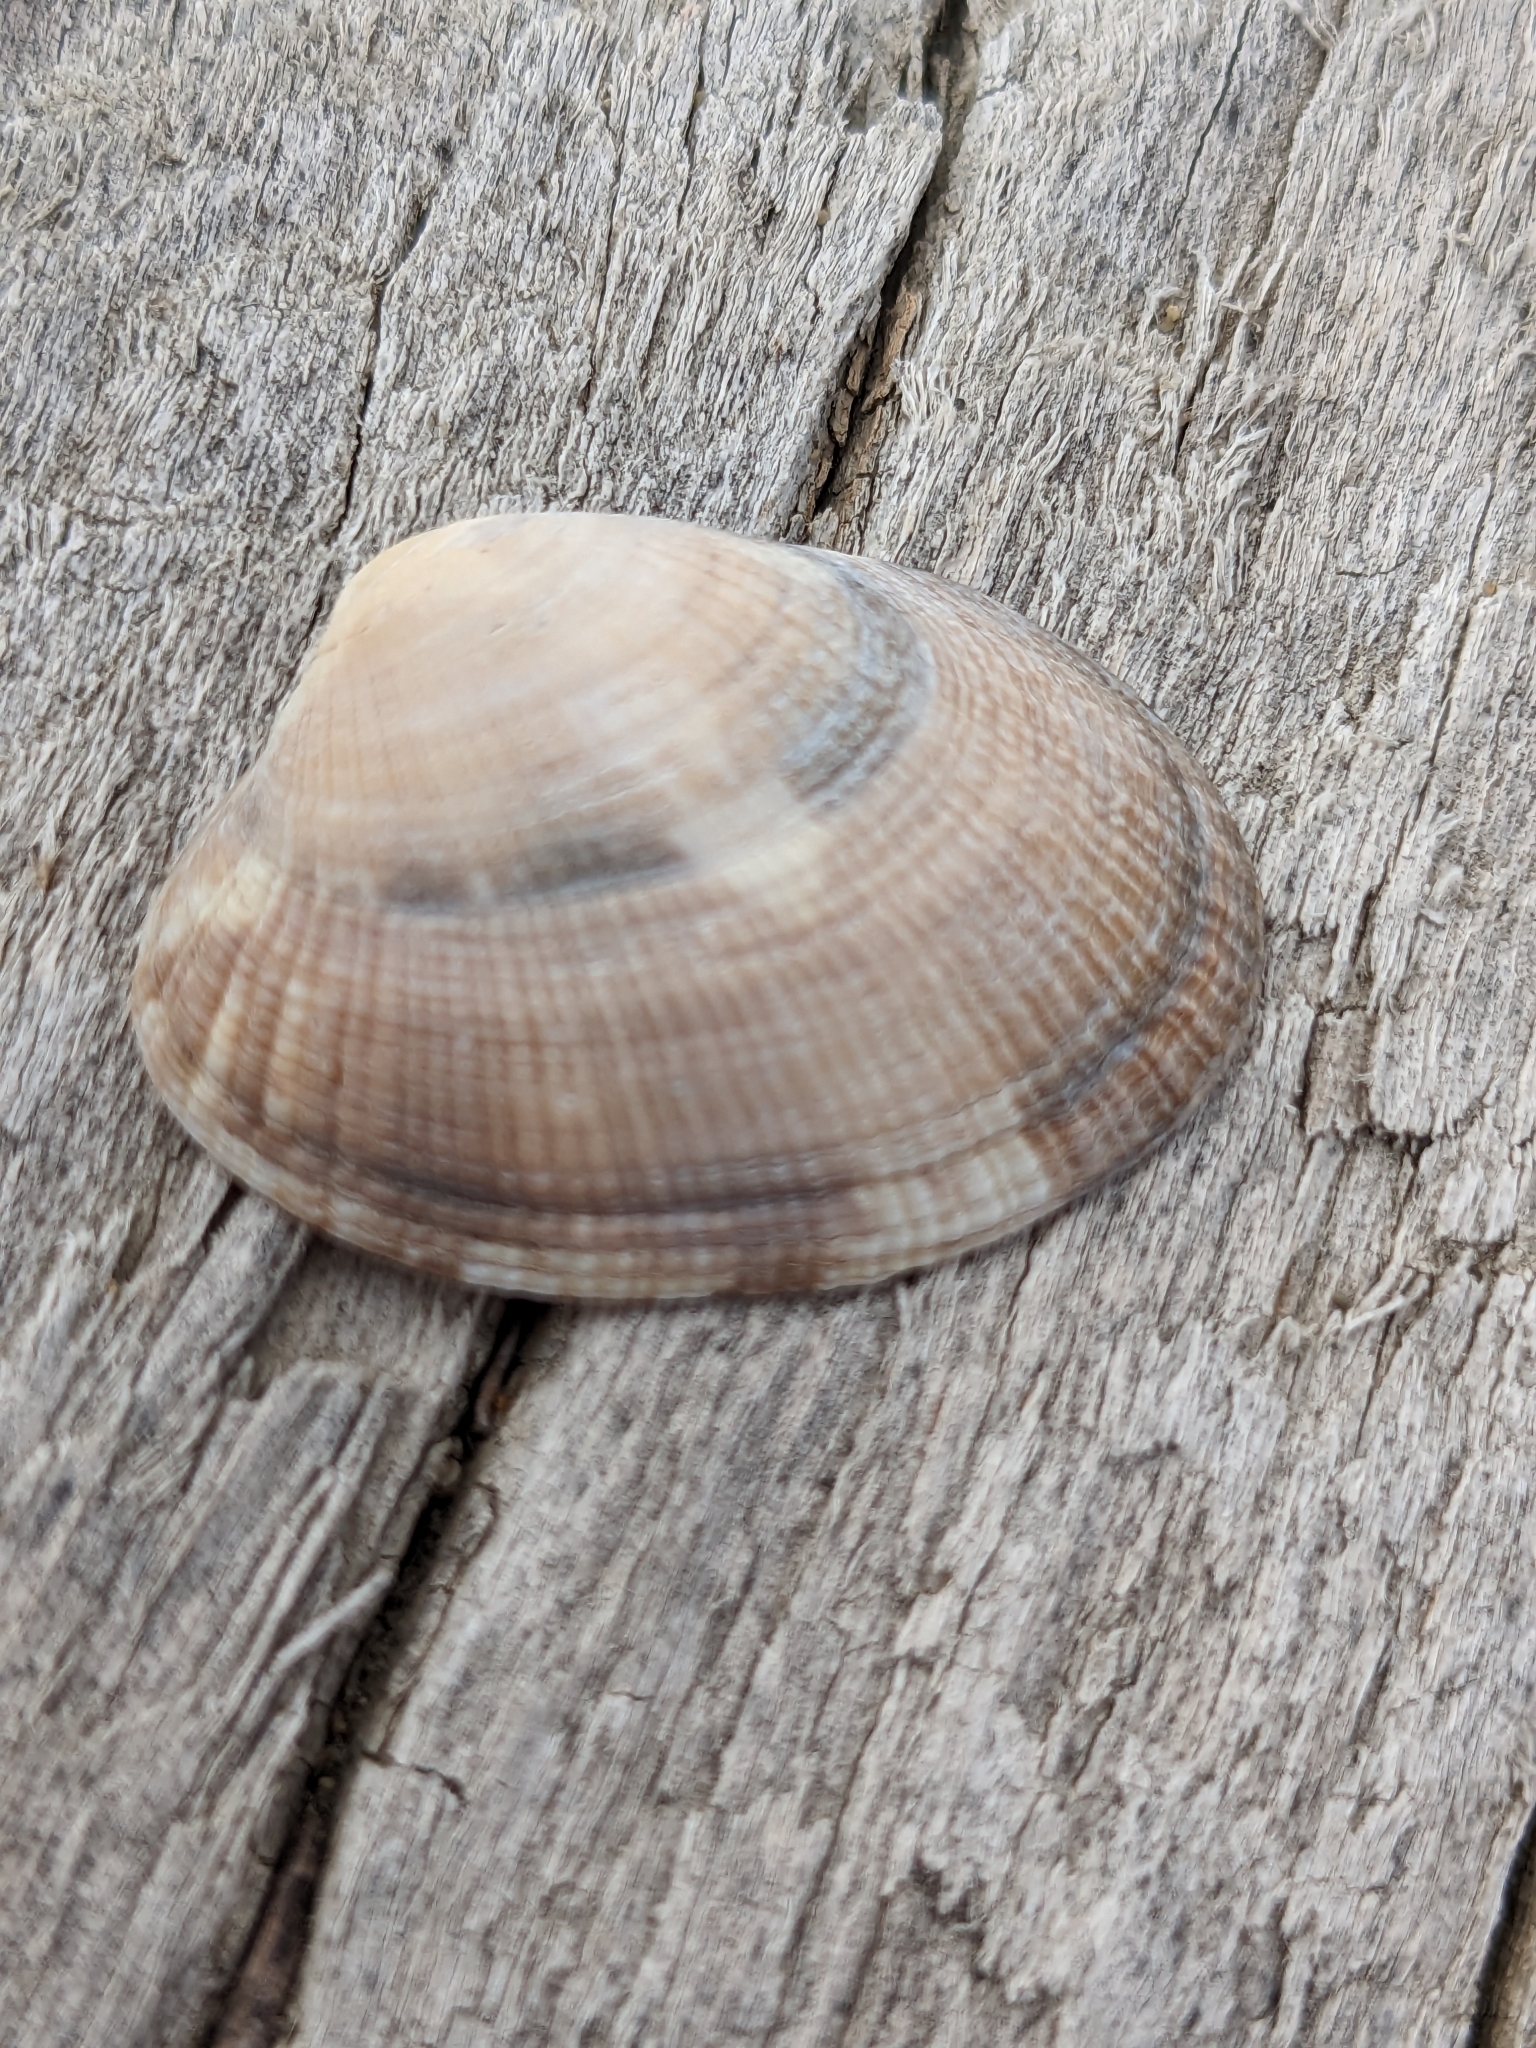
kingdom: Animalia
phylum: Mollusca
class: Bivalvia
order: Venerida
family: Veneridae
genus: Ruditapes
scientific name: Ruditapes philippinarum
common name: Manila clam
